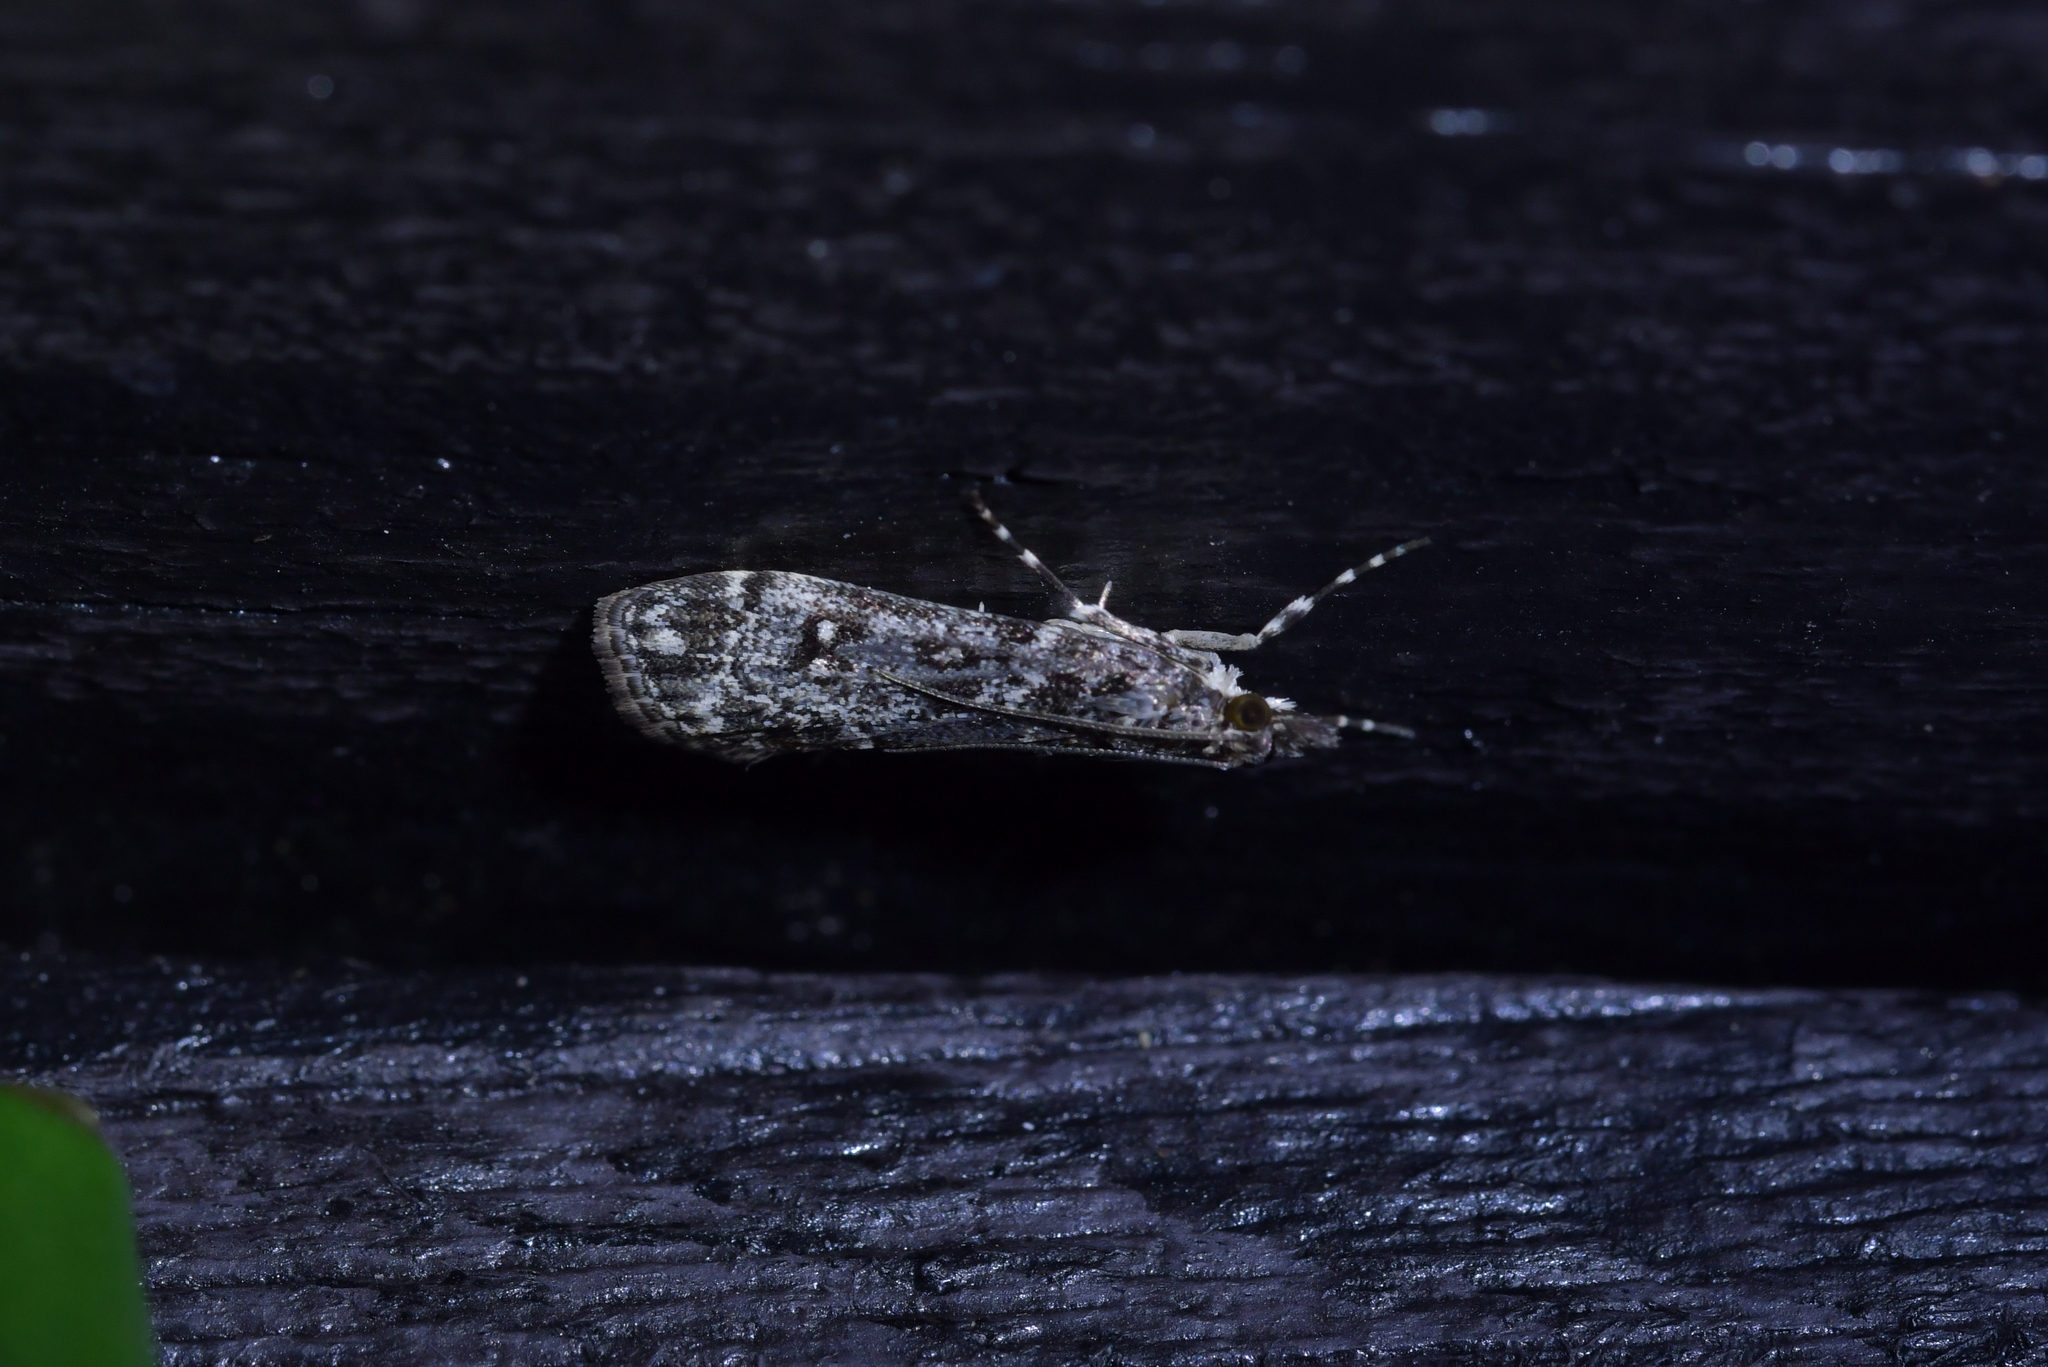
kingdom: Animalia
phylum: Arthropoda
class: Insecta
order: Lepidoptera
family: Crambidae
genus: Eudonia
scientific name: Eudonia philerga
